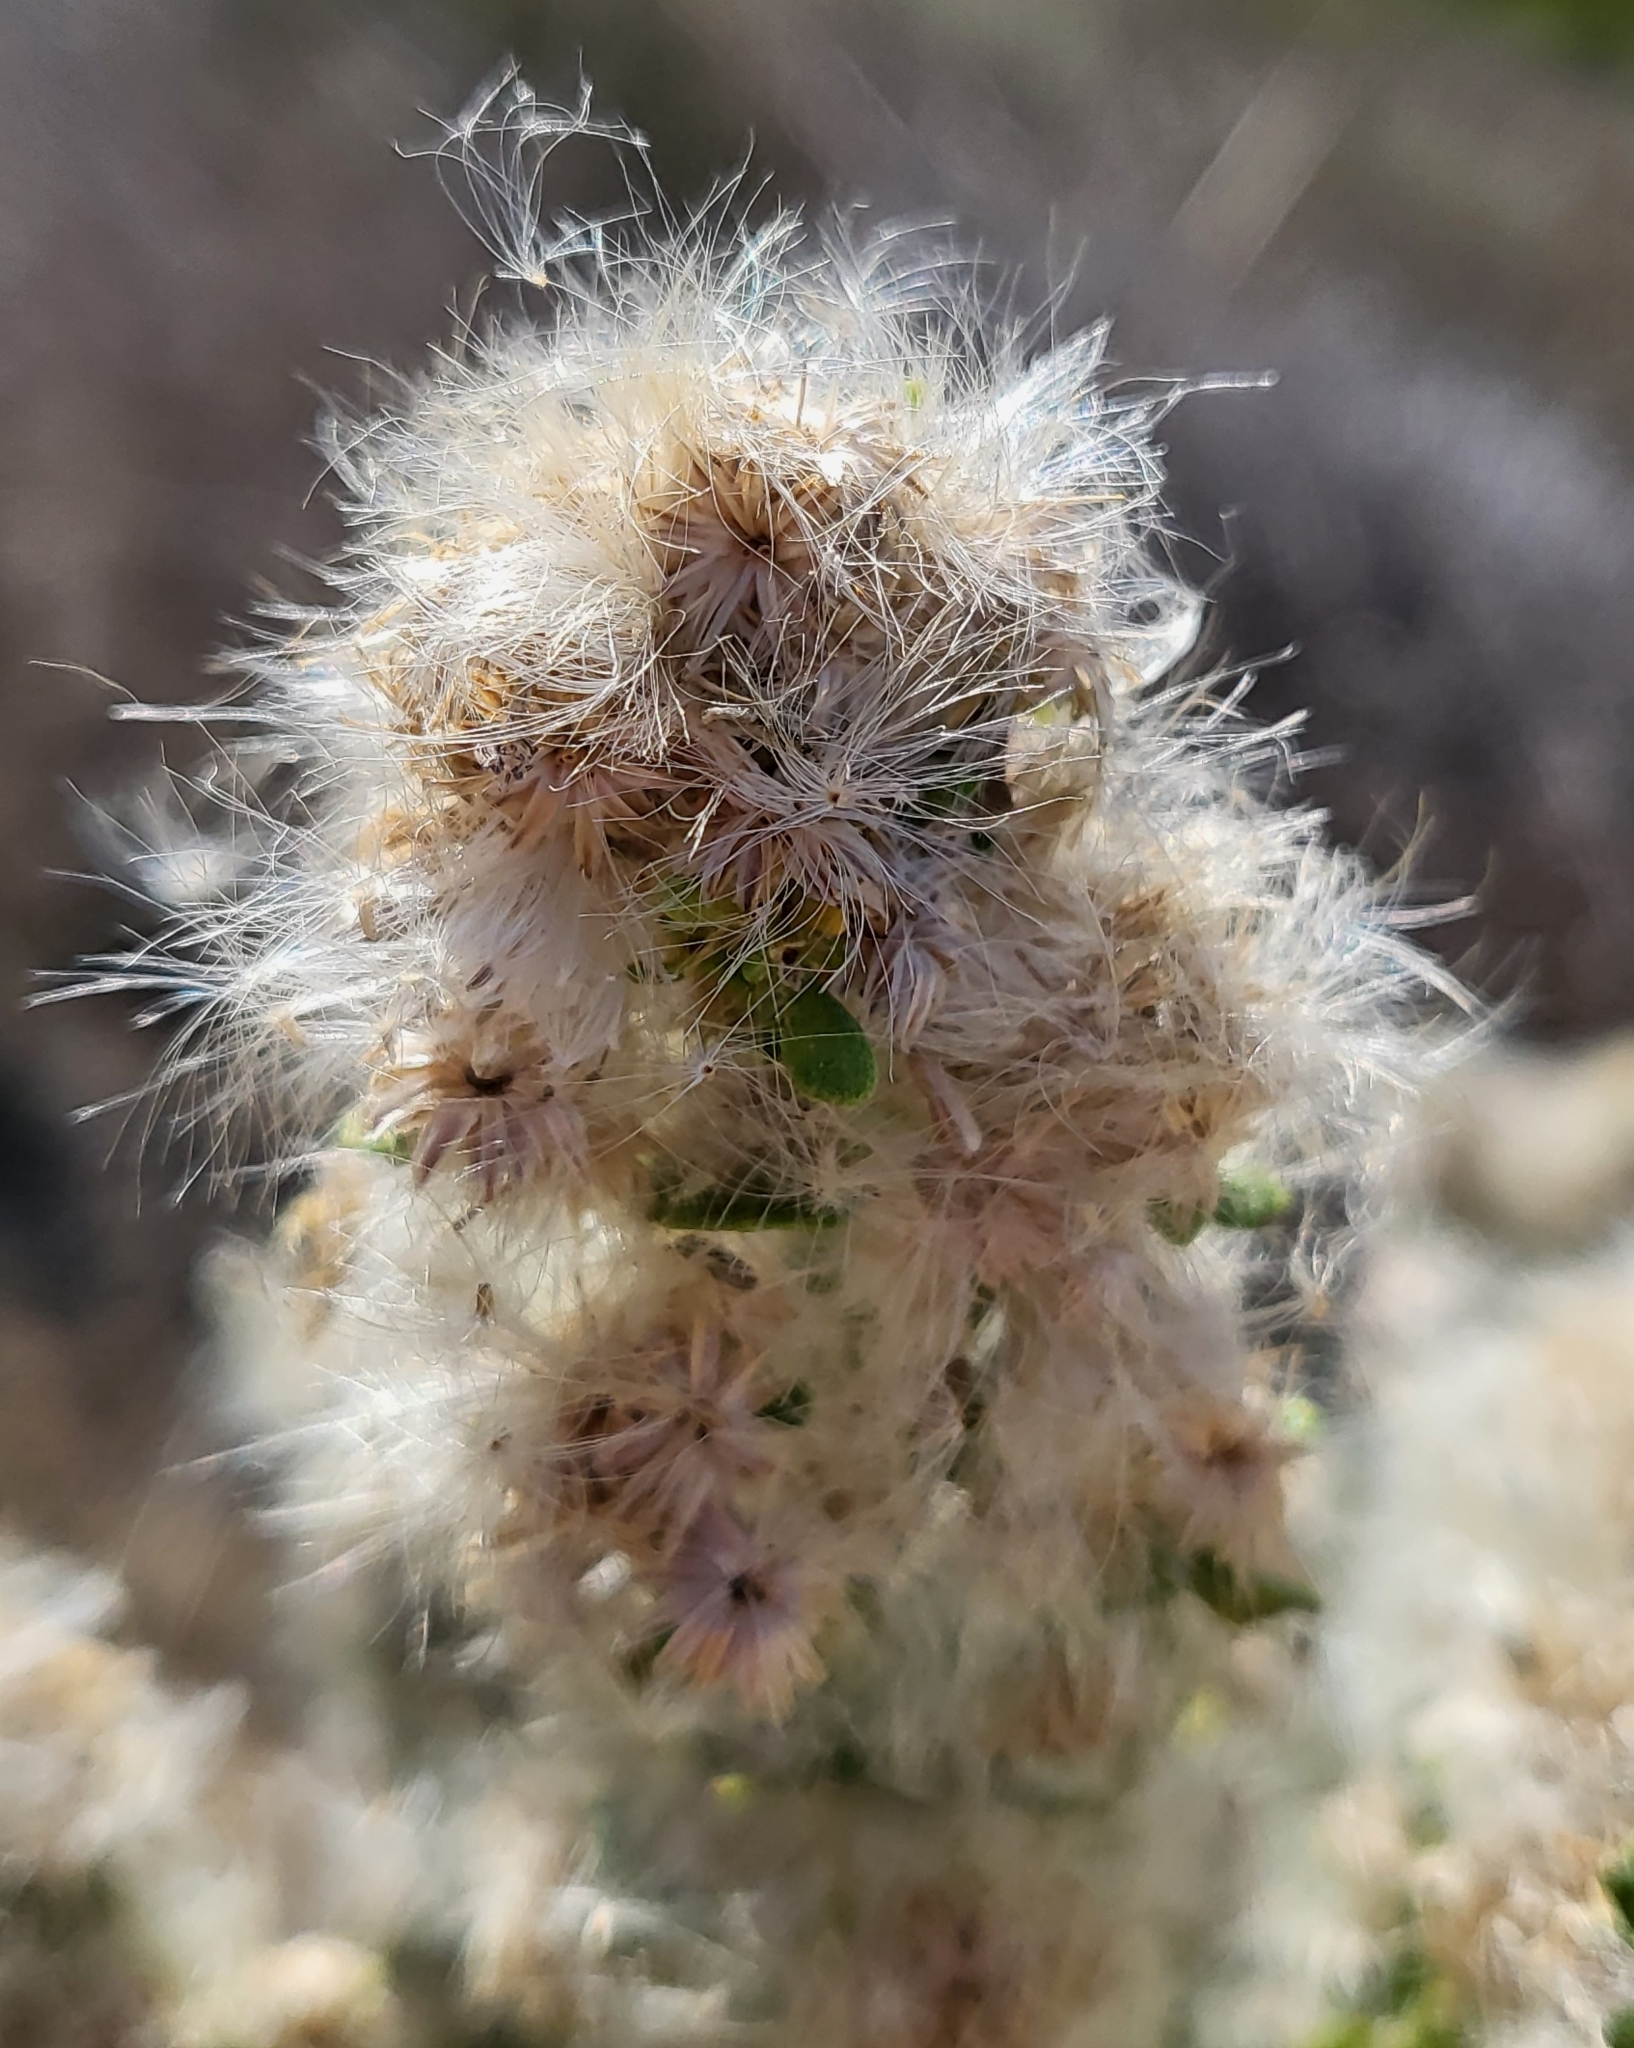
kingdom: Plantae
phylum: Tracheophyta
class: Magnoliopsida
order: Asterales
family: Asteraceae
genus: Baccharis
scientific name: Baccharis pilularis
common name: Coyotebrush
